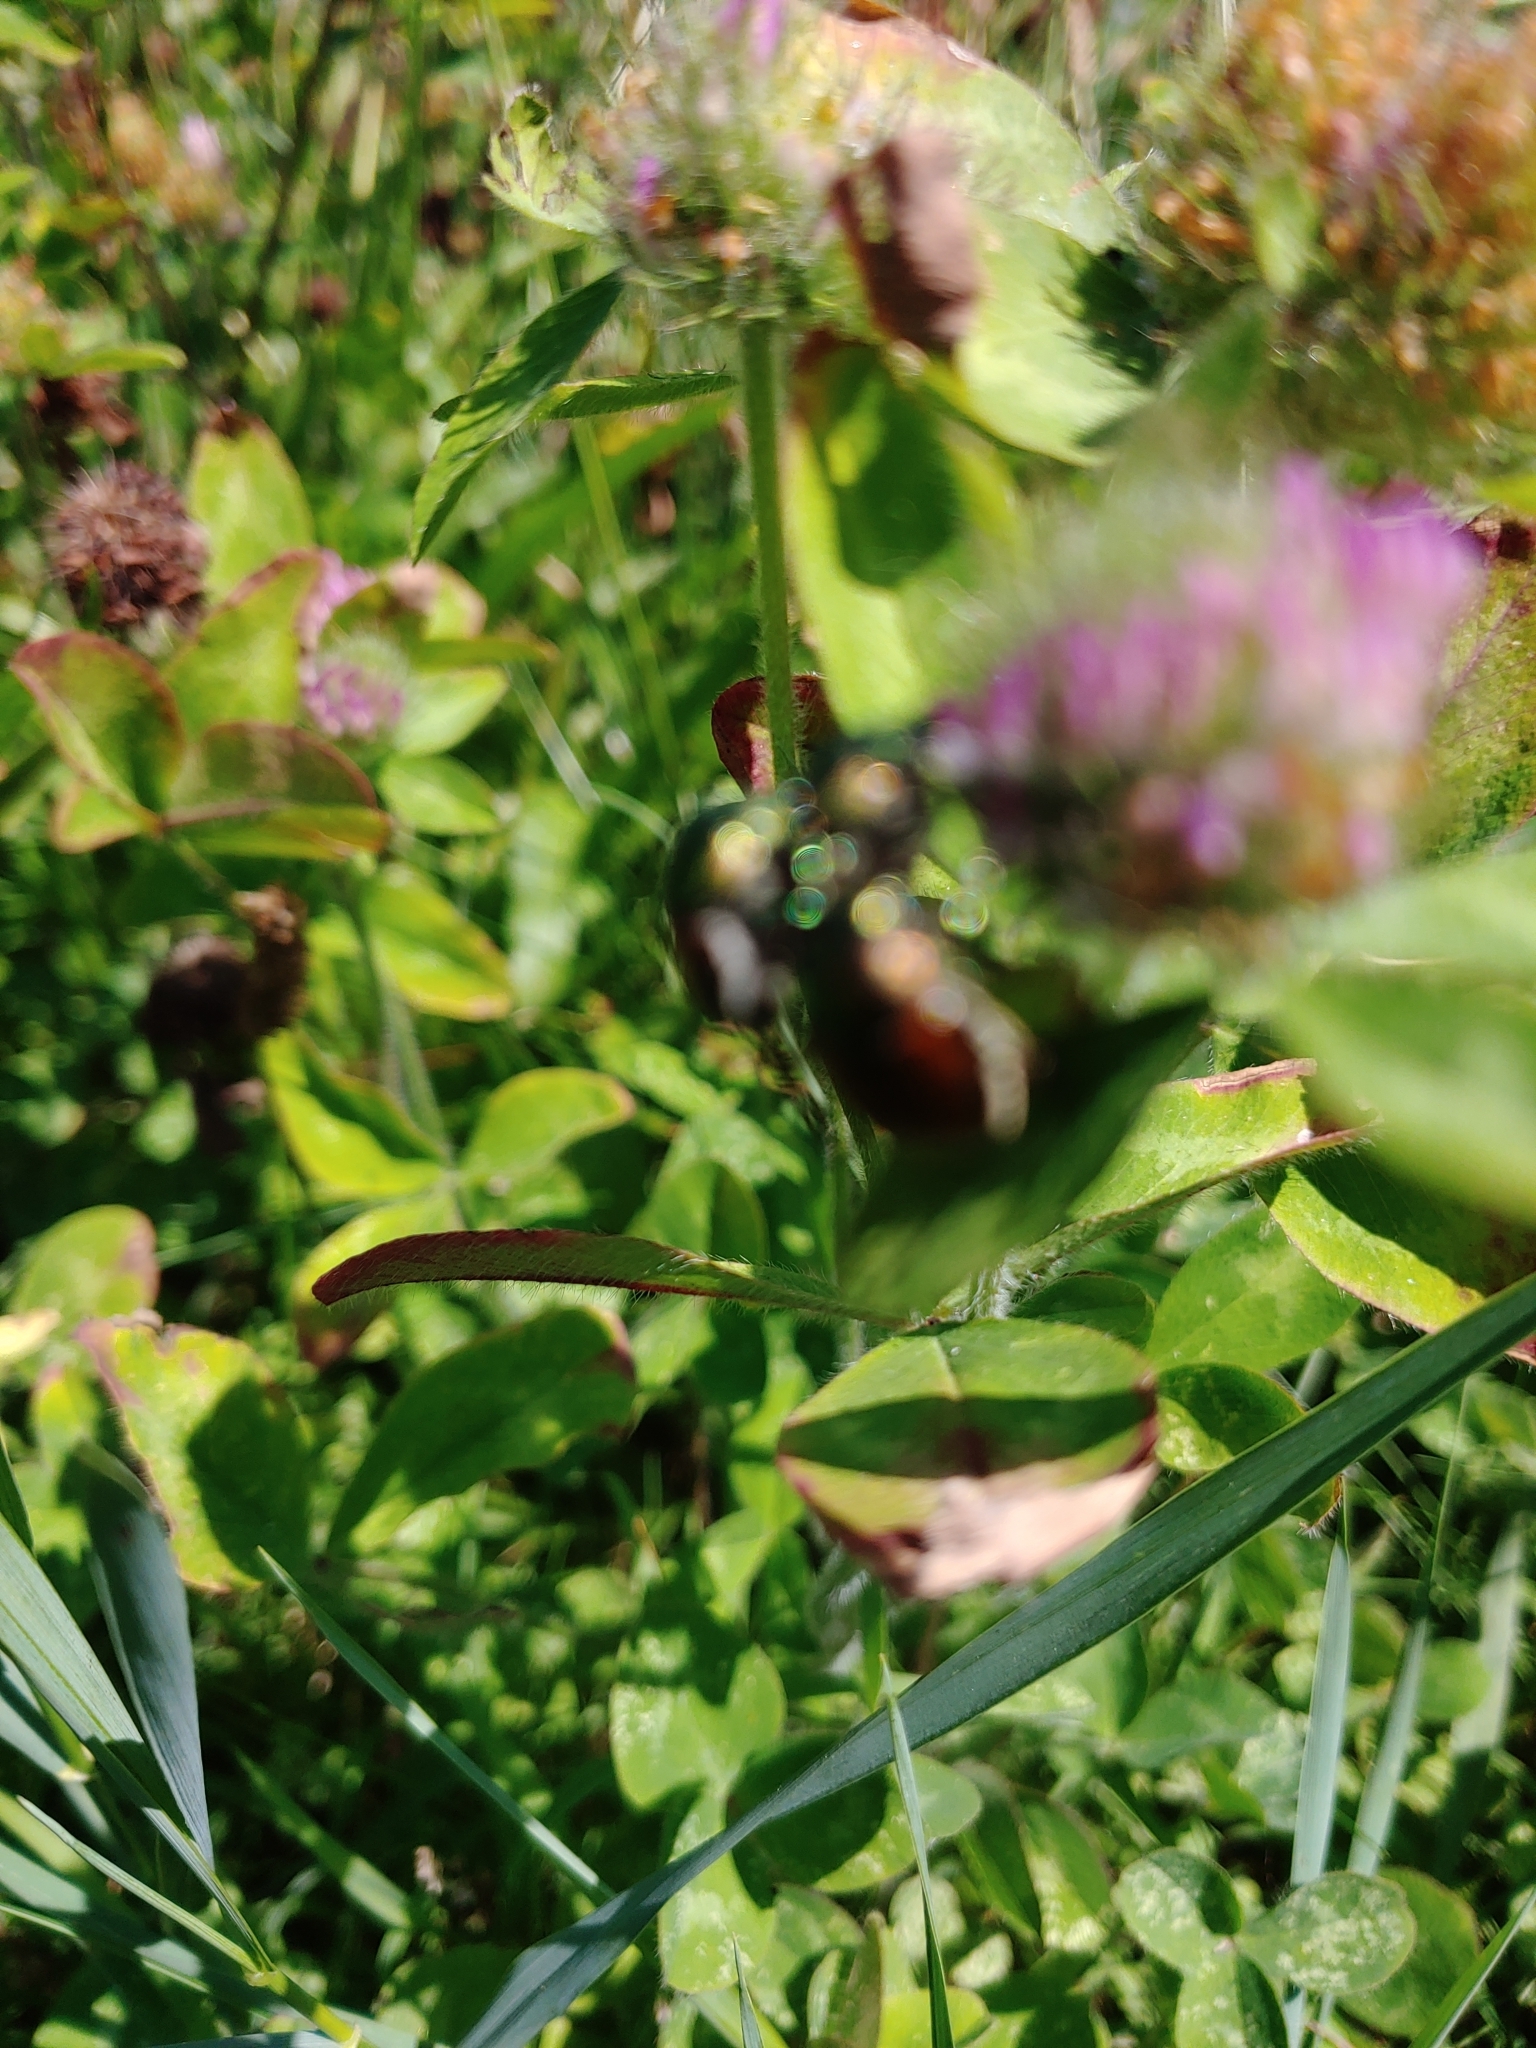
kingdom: Animalia
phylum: Arthropoda
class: Insecta
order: Coleoptera
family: Scarabaeidae
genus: Popillia
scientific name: Popillia japonica
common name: Japanese beetle
